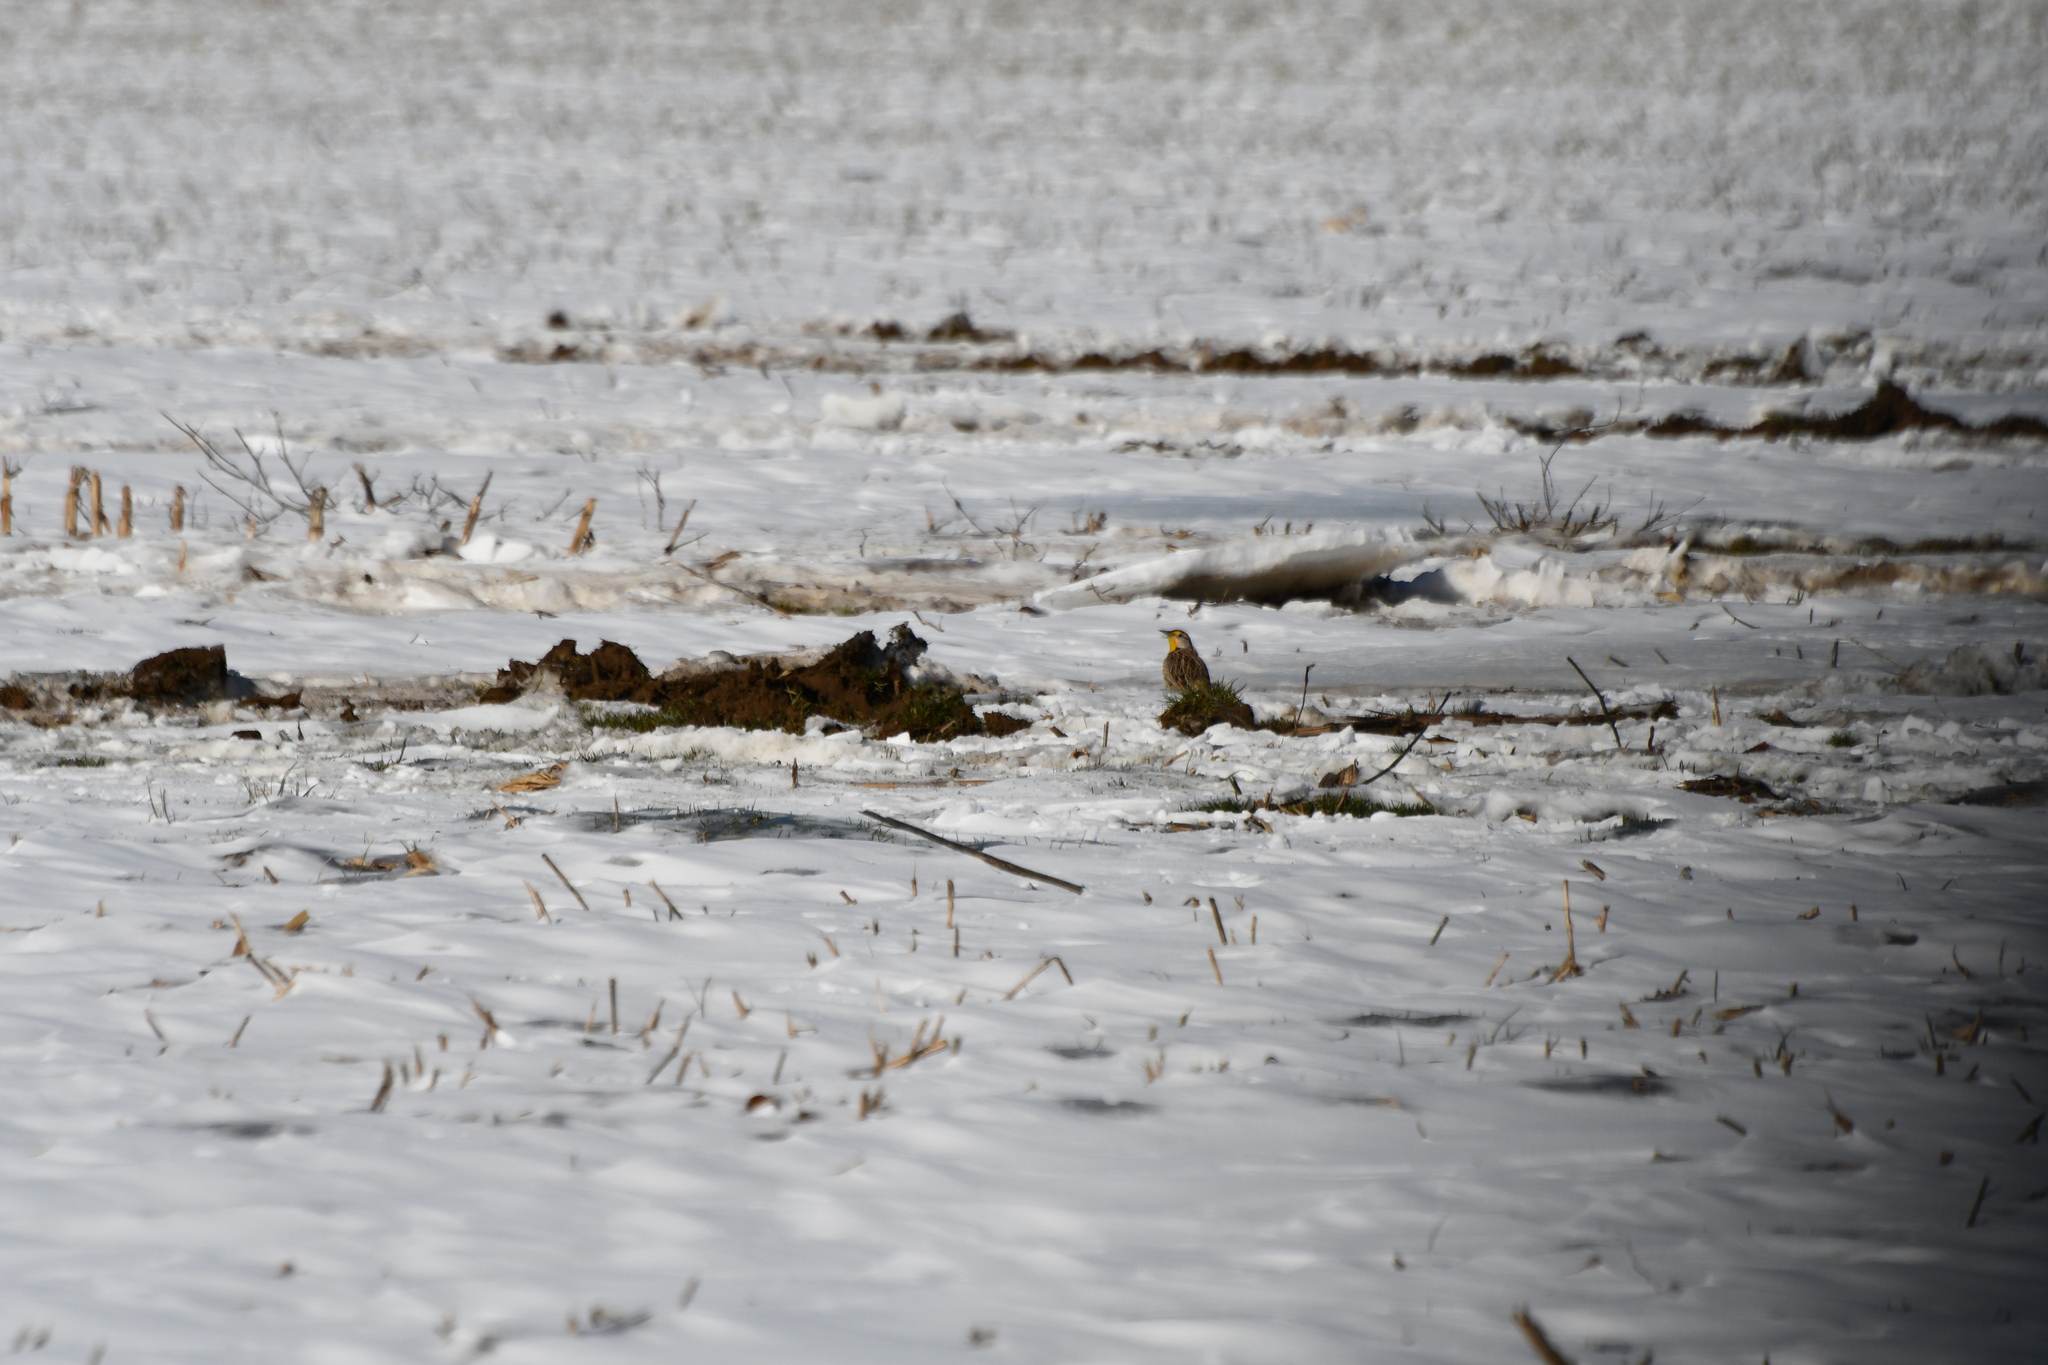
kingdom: Animalia
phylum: Chordata
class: Aves
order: Passeriformes
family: Icteridae
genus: Sturnella
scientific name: Sturnella magna
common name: Eastern meadowlark
